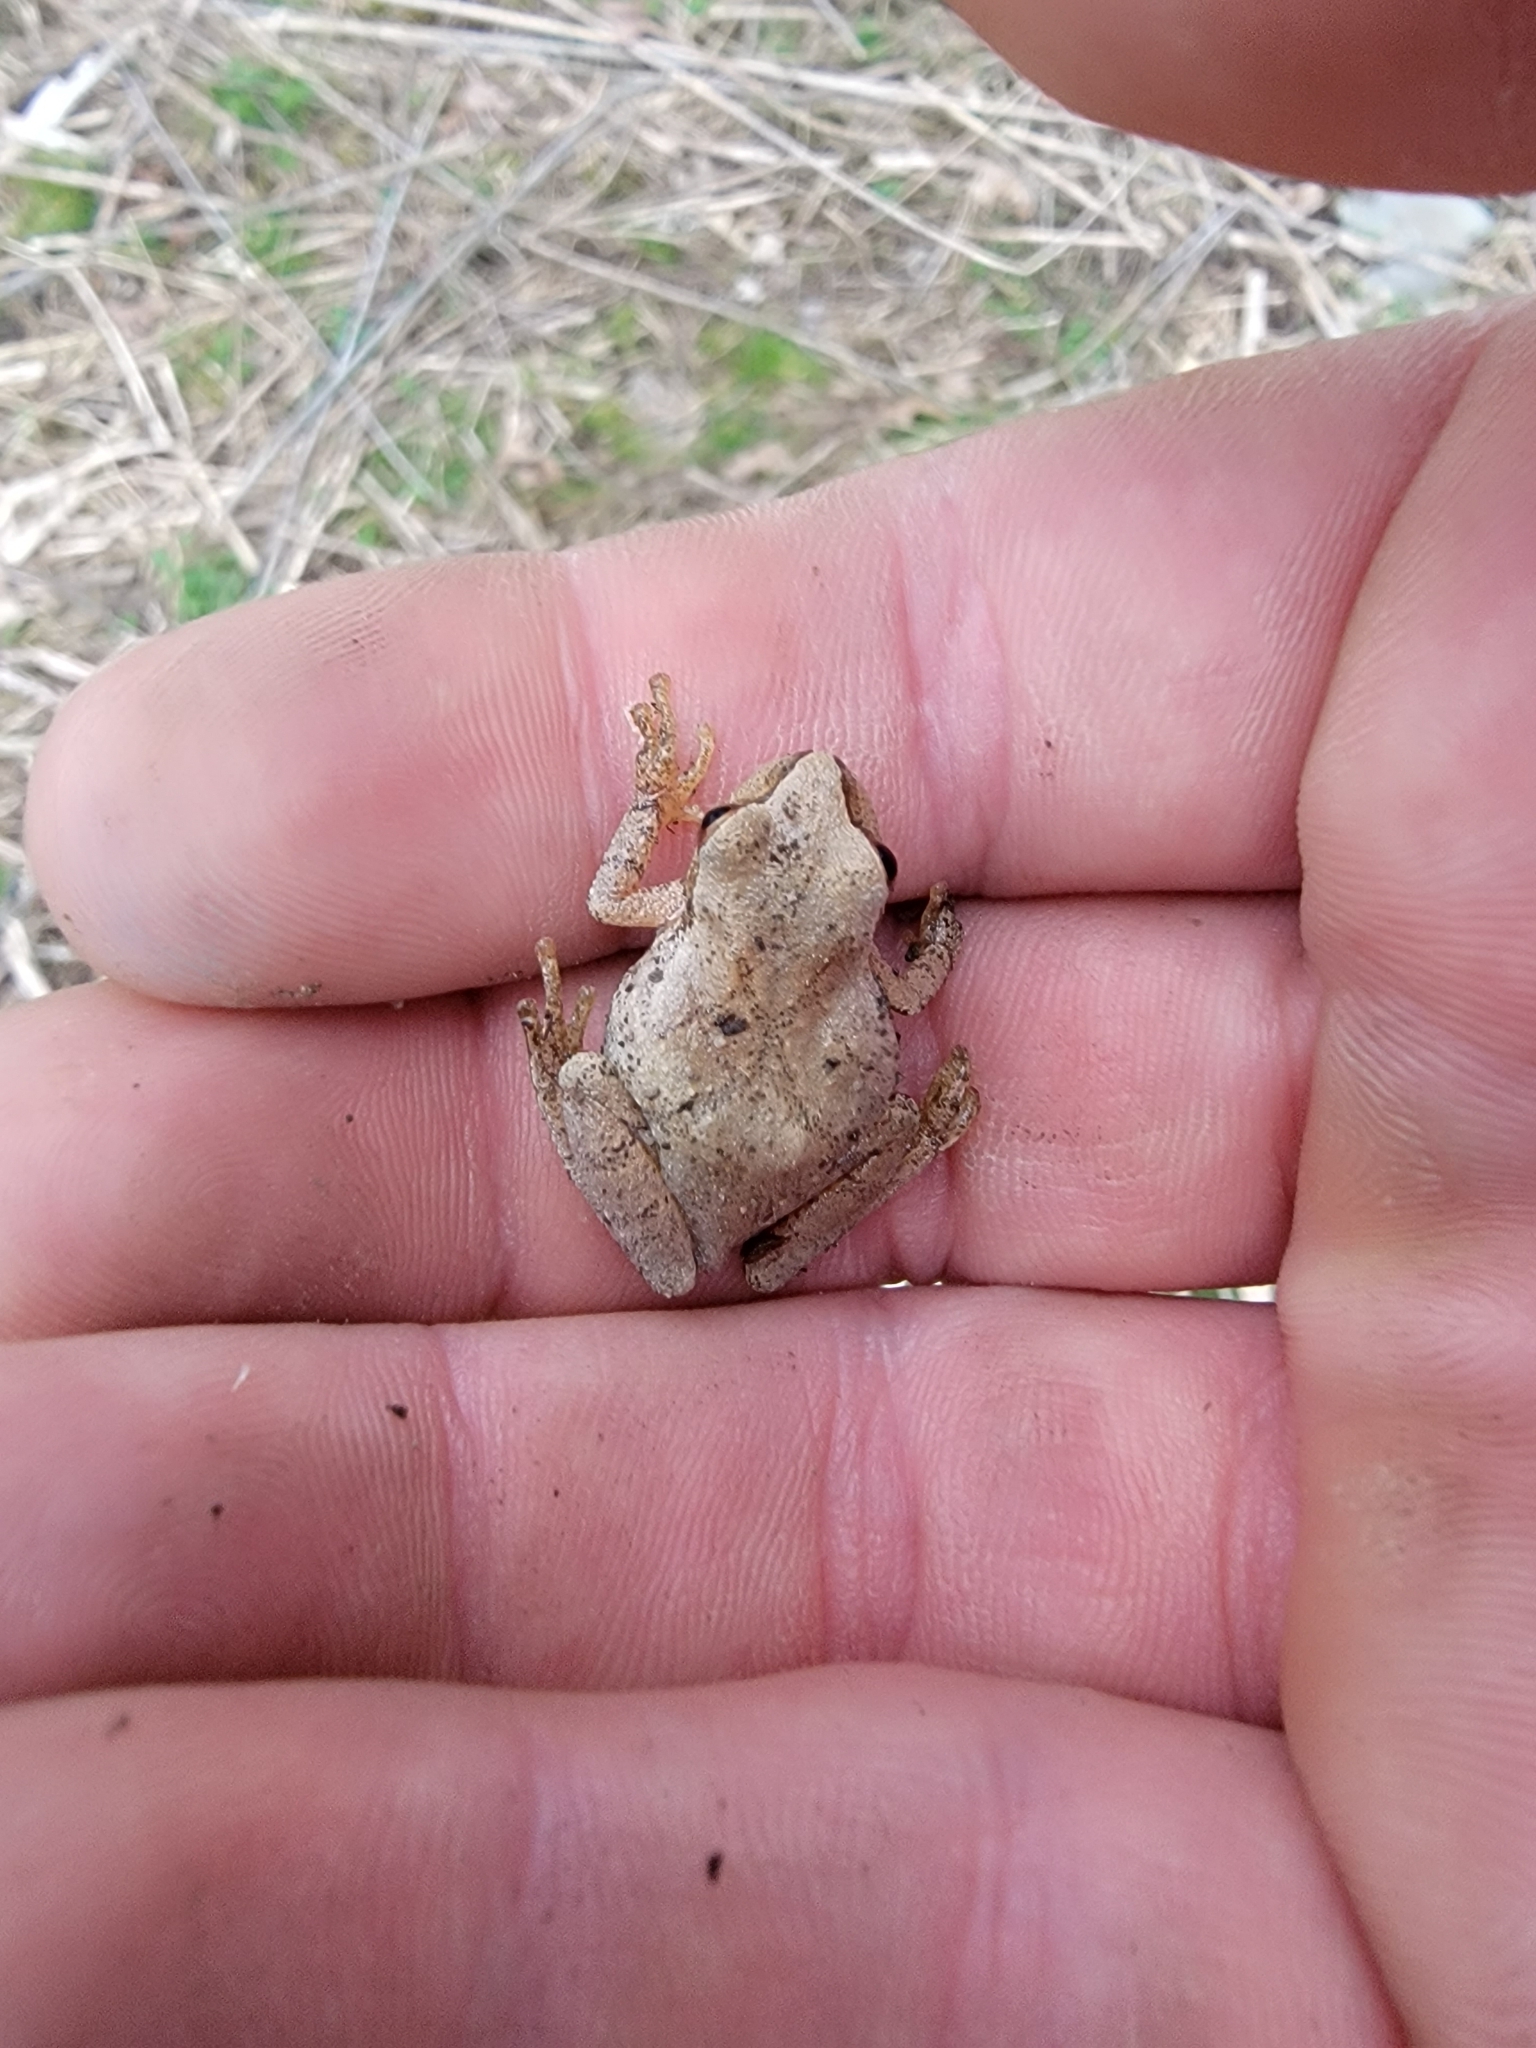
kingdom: Animalia
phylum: Chordata
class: Amphibia
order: Anura
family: Hylidae
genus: Pseudacris
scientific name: Pseudacris crucifer
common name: Spring peeper
